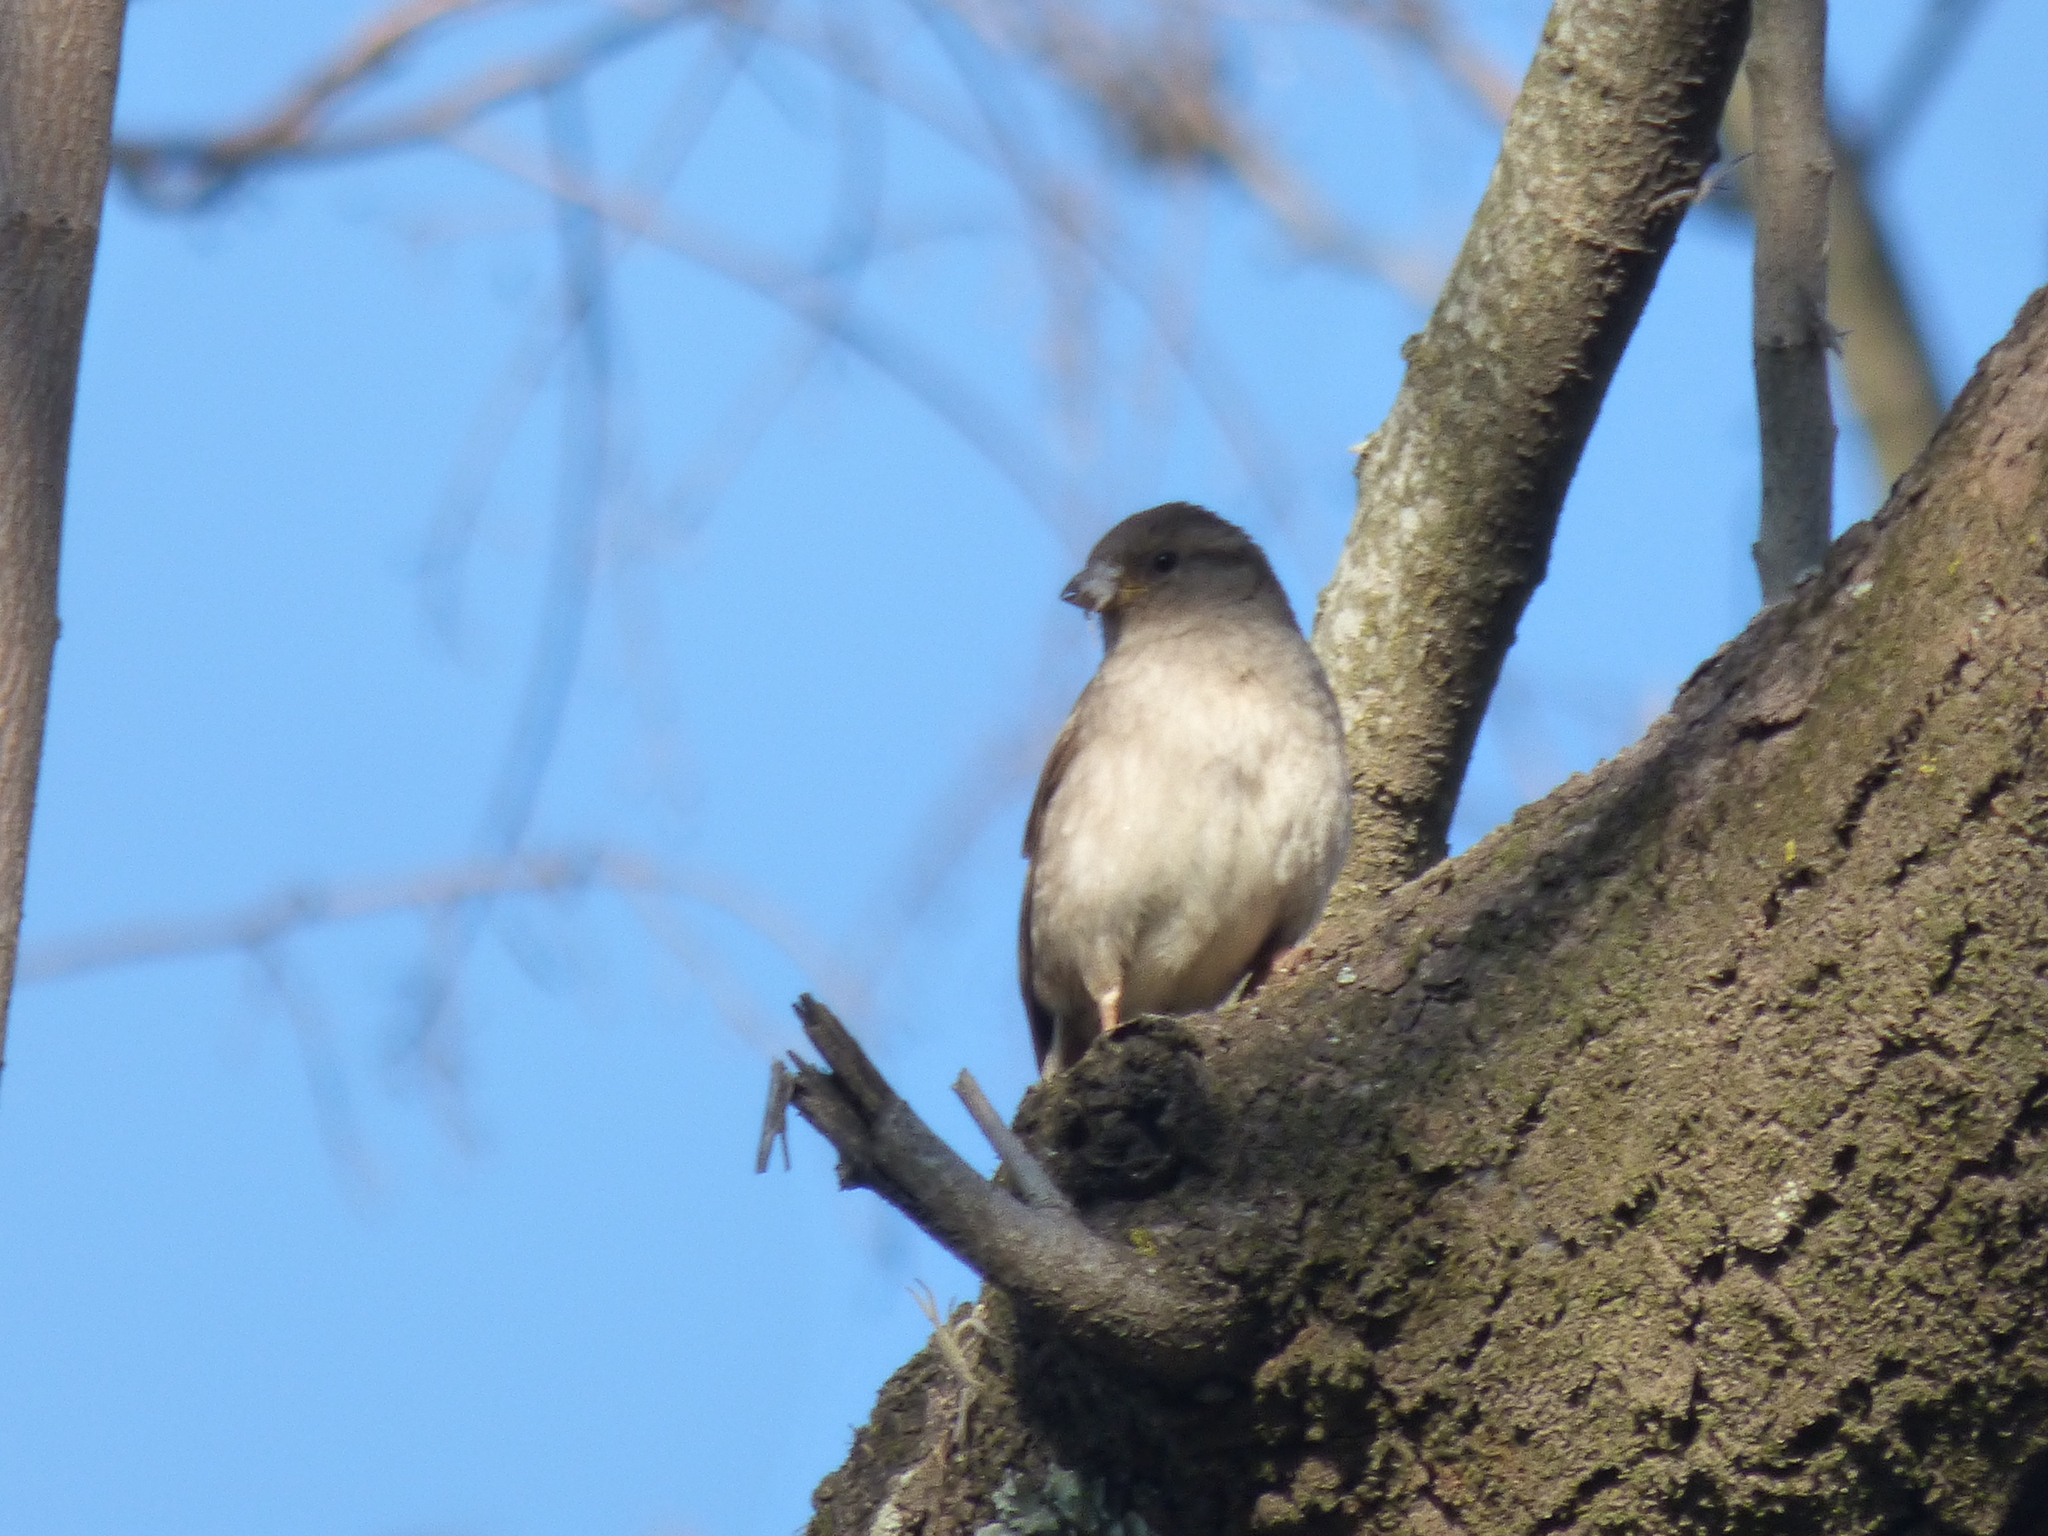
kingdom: Animalia
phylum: Chordata
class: Aves
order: Passeriformes
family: Passeridae
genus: Passer
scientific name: Passer domesticus
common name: House sparrow
